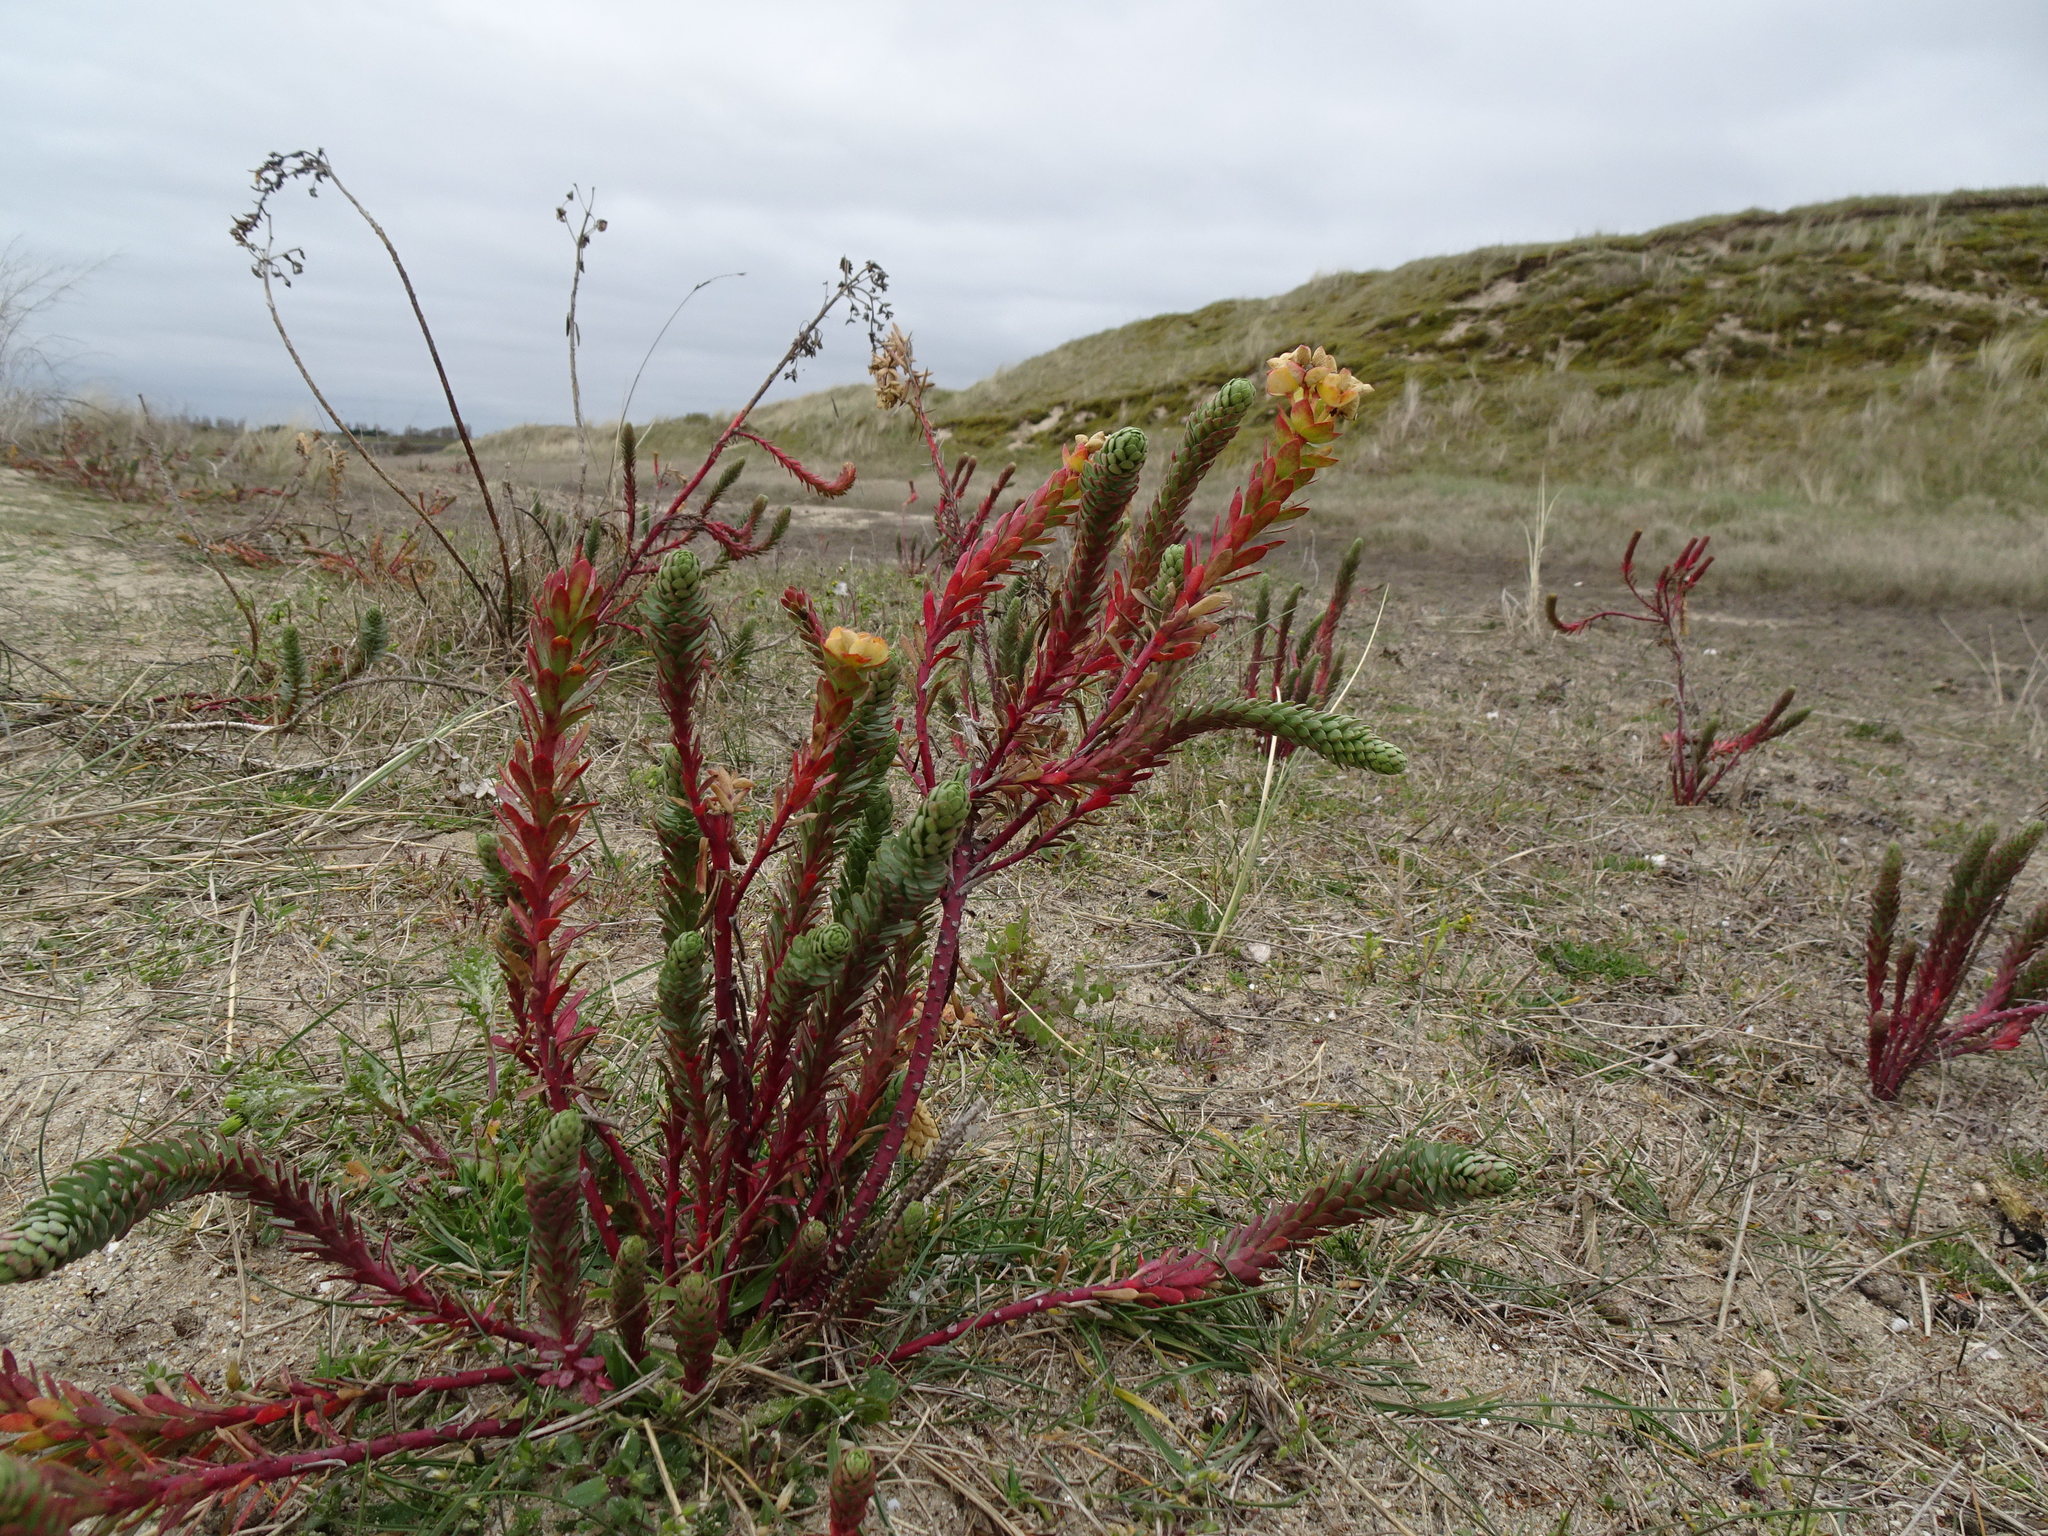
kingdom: Plantae
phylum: Tracheophyta
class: Magnoliopsida
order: Malpighiales
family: Euphorbiaceae
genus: Euphorbia
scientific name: Euphorbia paralias
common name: Sea spurge
